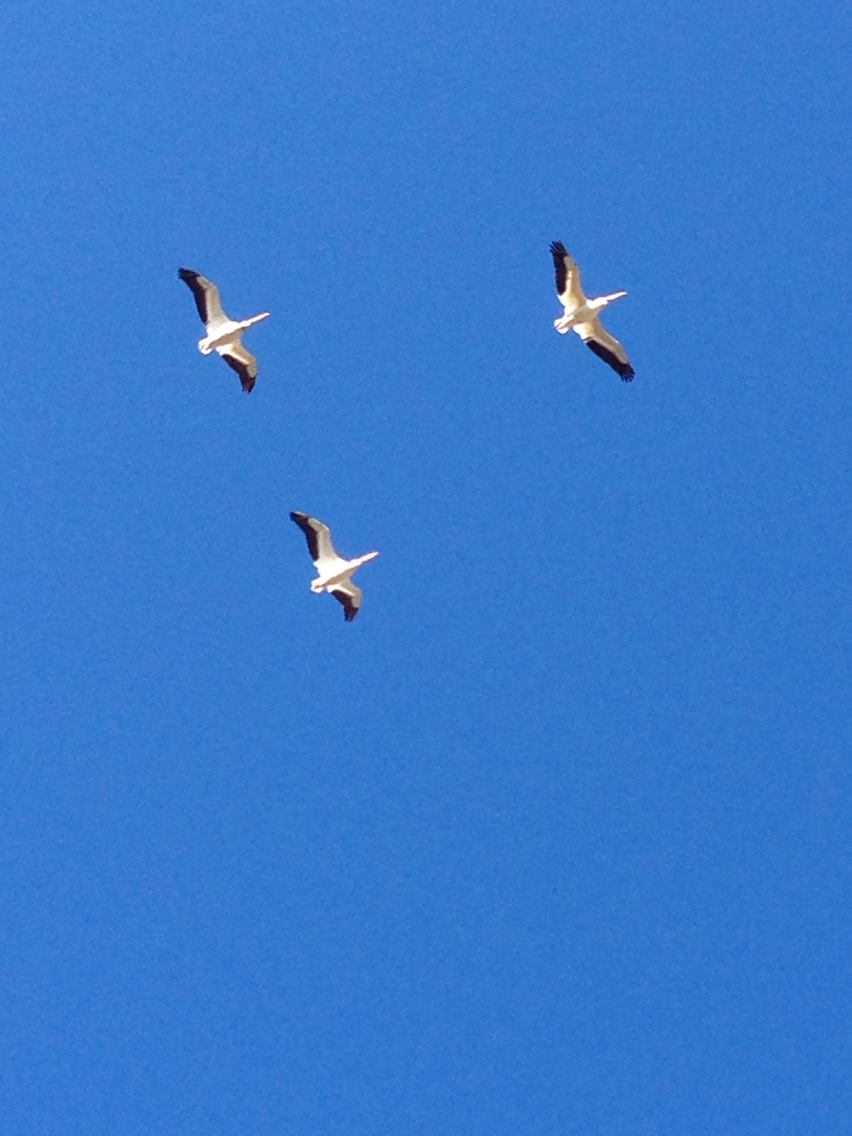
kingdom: Animalia
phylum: Chordata
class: Aves
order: Pelecaniformes
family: Pelecanidae
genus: Pelecanus
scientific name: Pelecanus erythrorhynchos
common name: American white pelican
